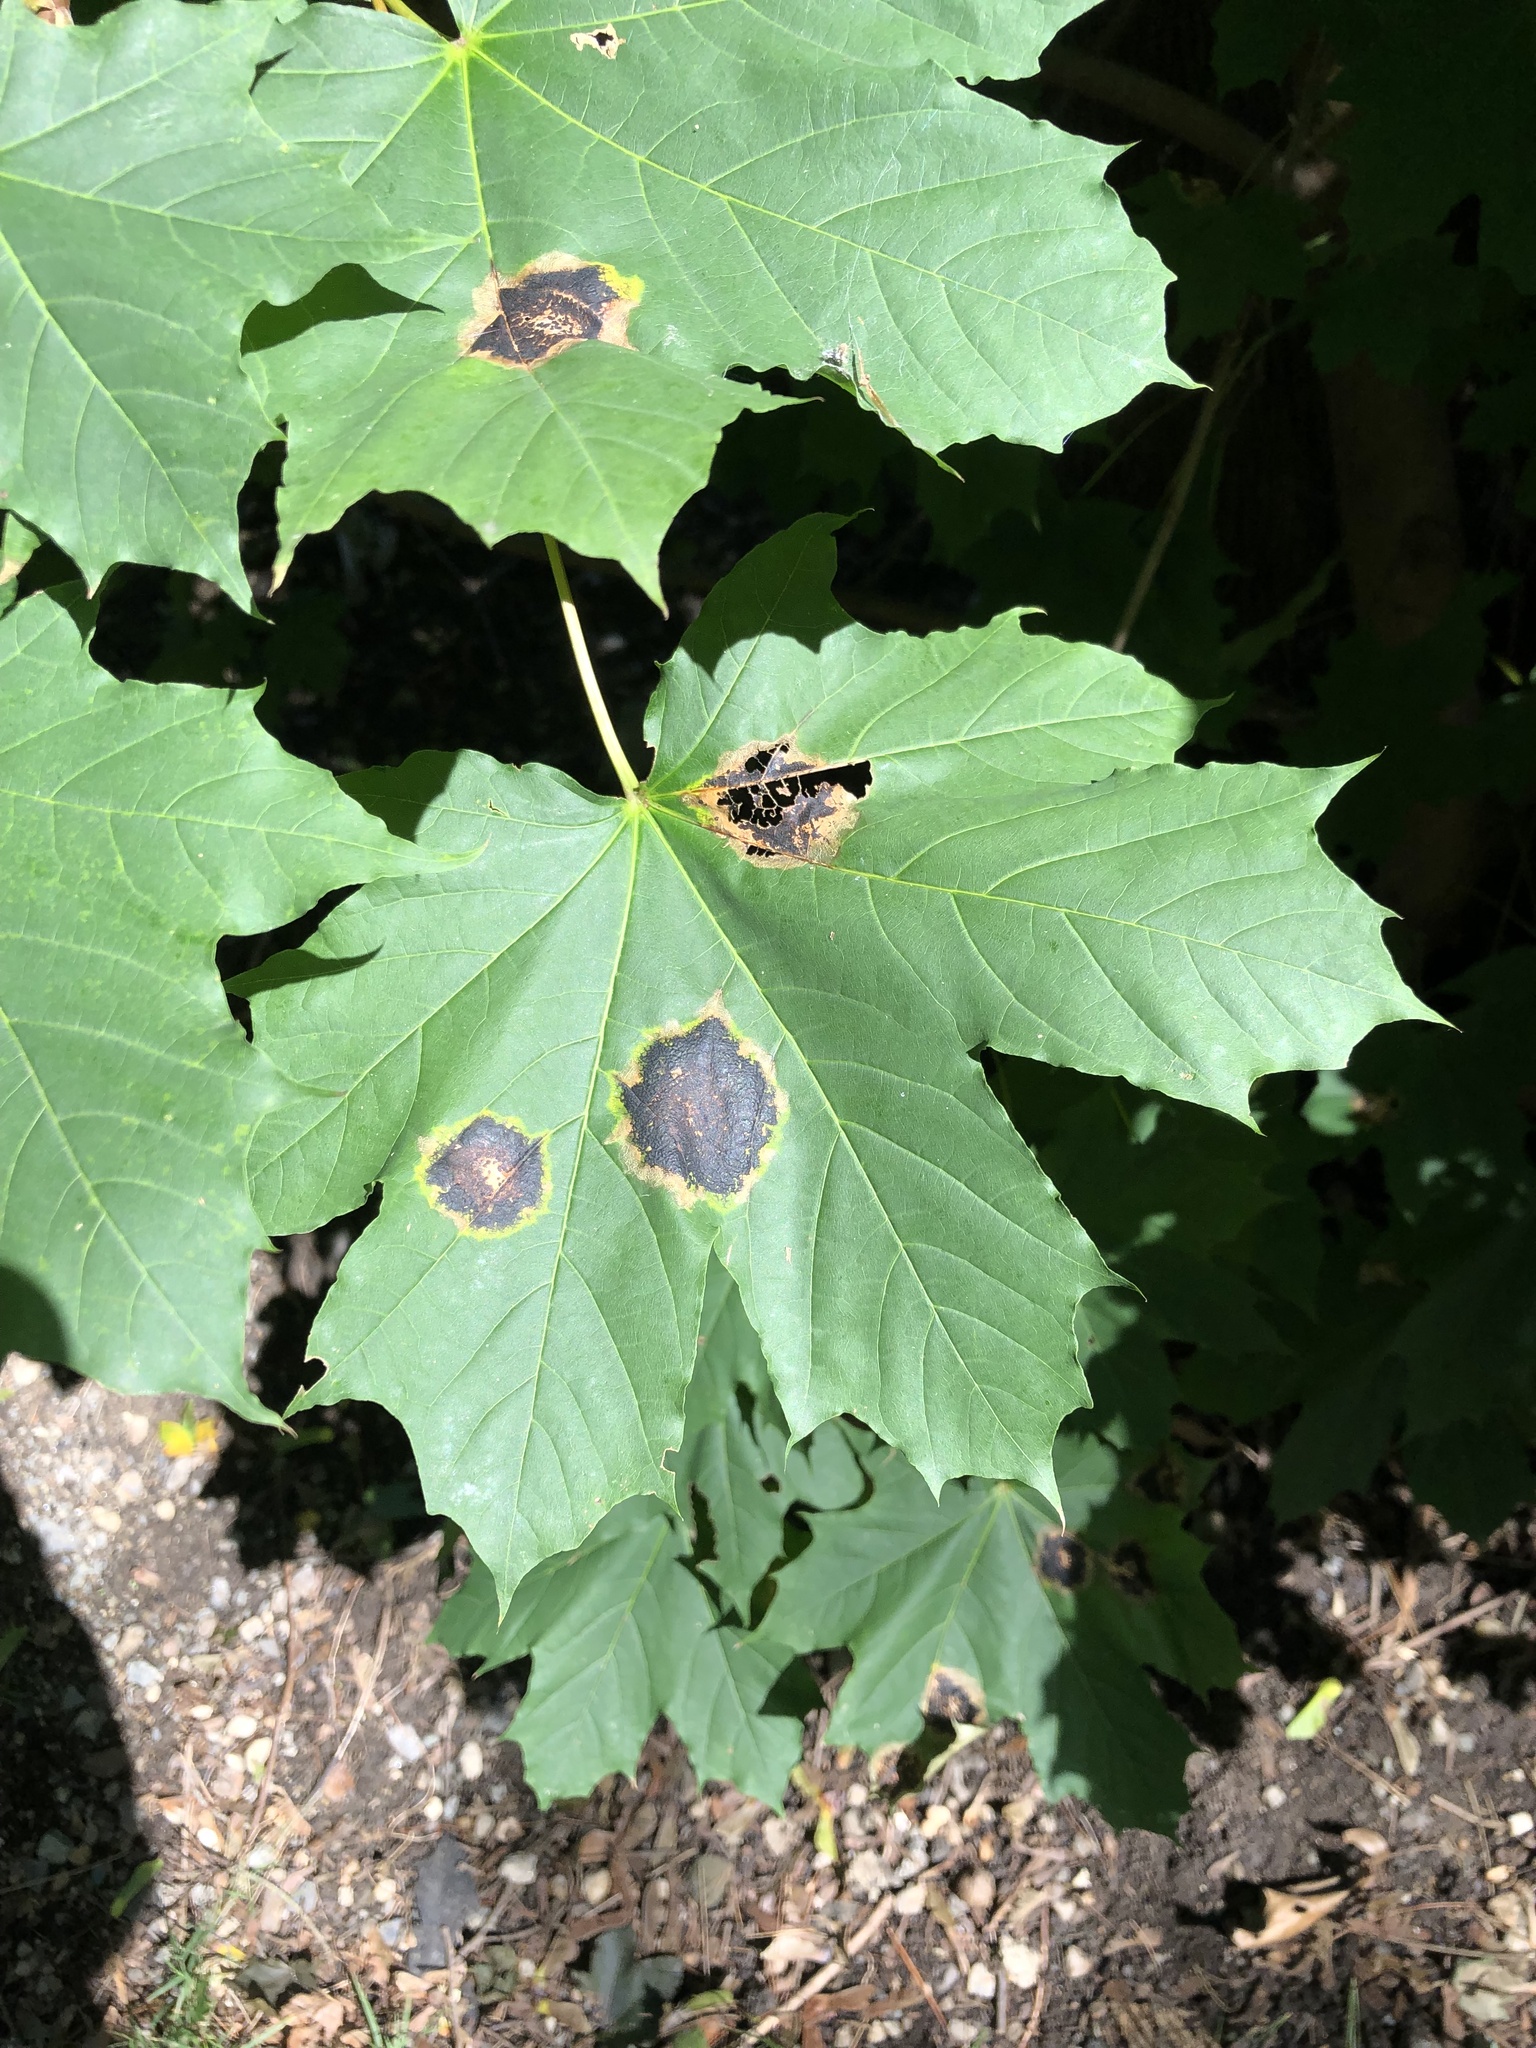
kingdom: Plantae
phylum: Tracheophyta
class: Magnoliopsida
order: Sapindales
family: Sapindaceae
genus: Acer
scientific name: Acer platanoides
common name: Norway maple
